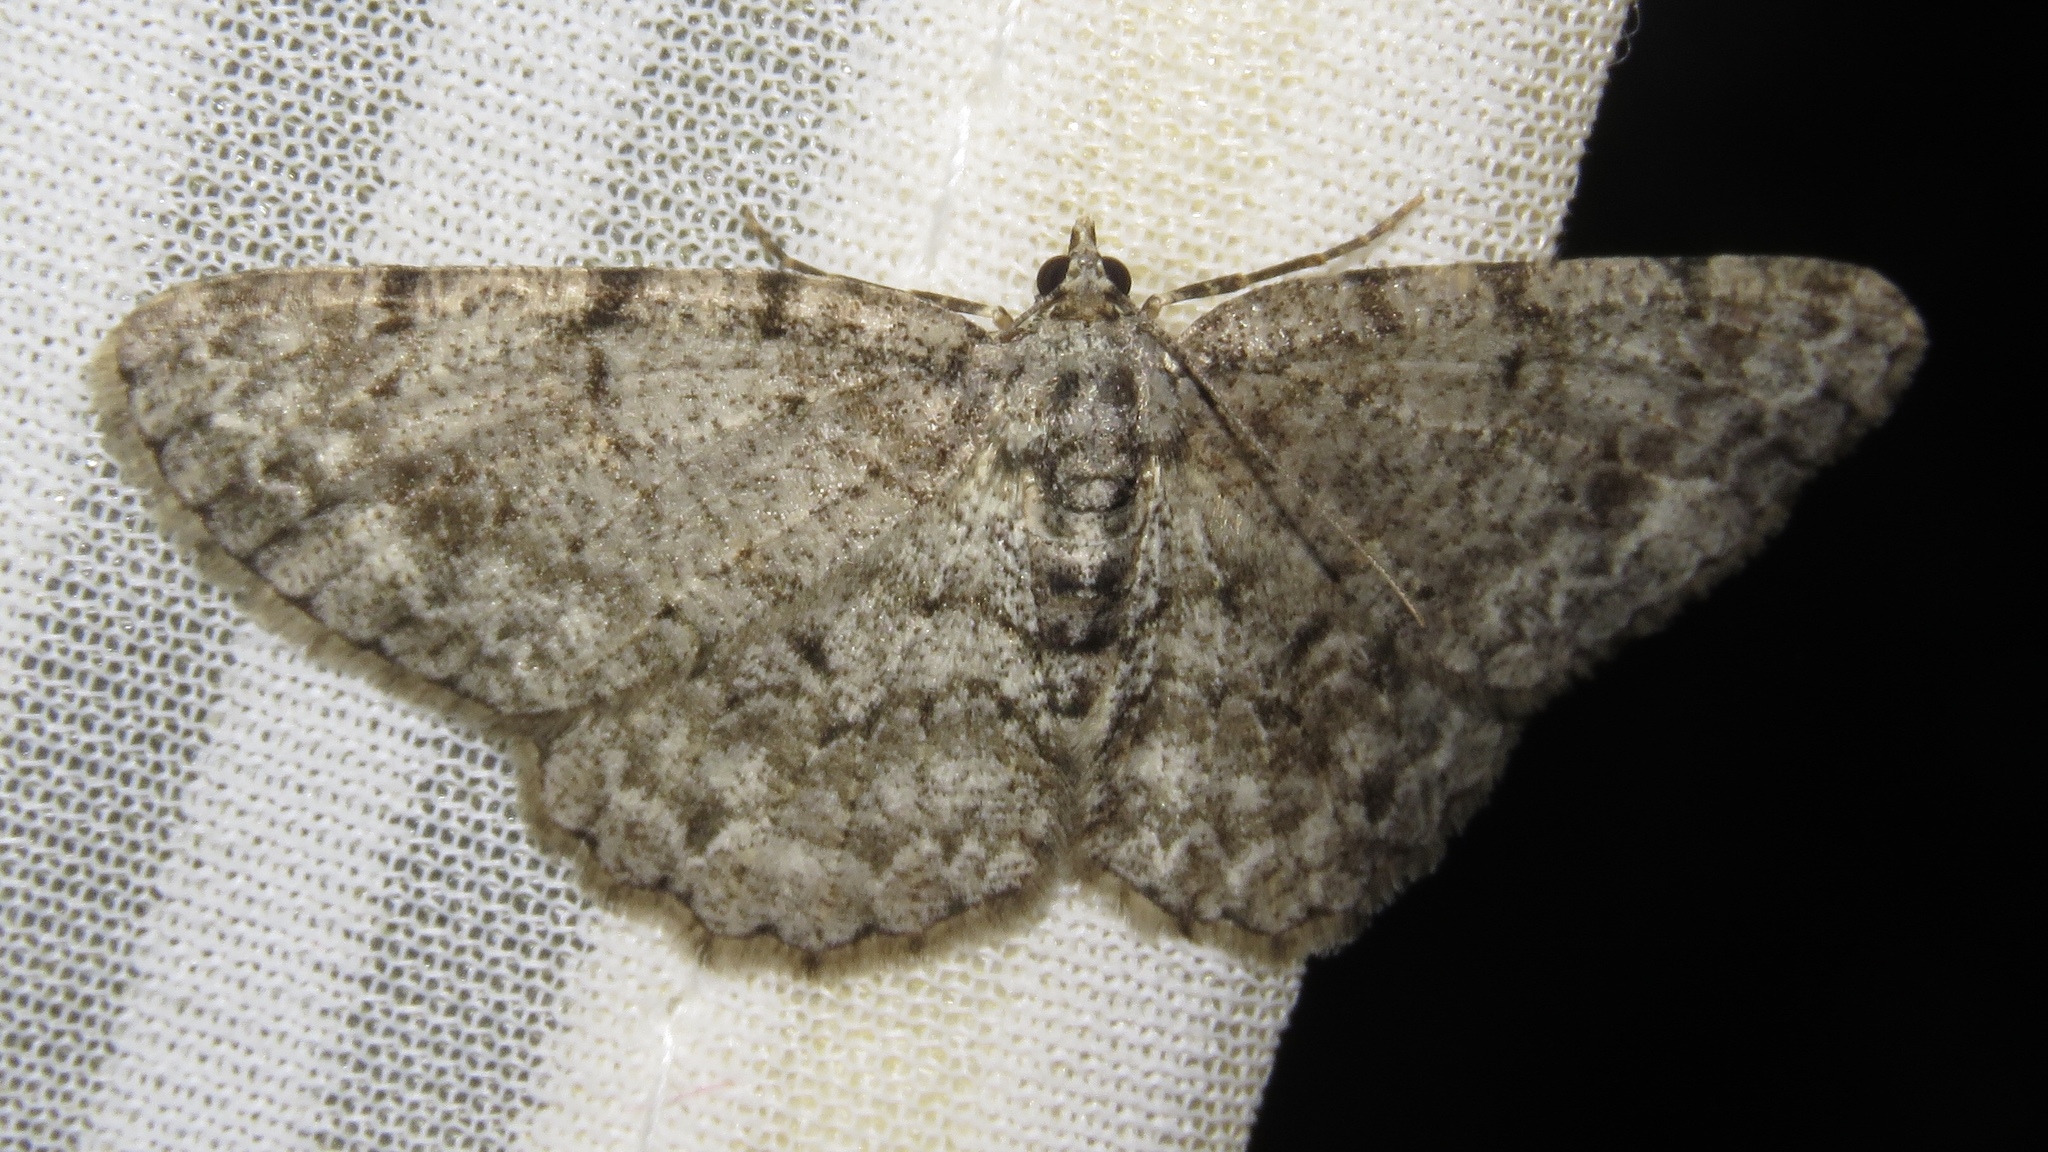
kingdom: Animalia
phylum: Arthropoda
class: Insecta
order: Lepidoptera
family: Geometridae
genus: Protoboarmia
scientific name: Protoboarmia porcelaria
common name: Porcelain gray
